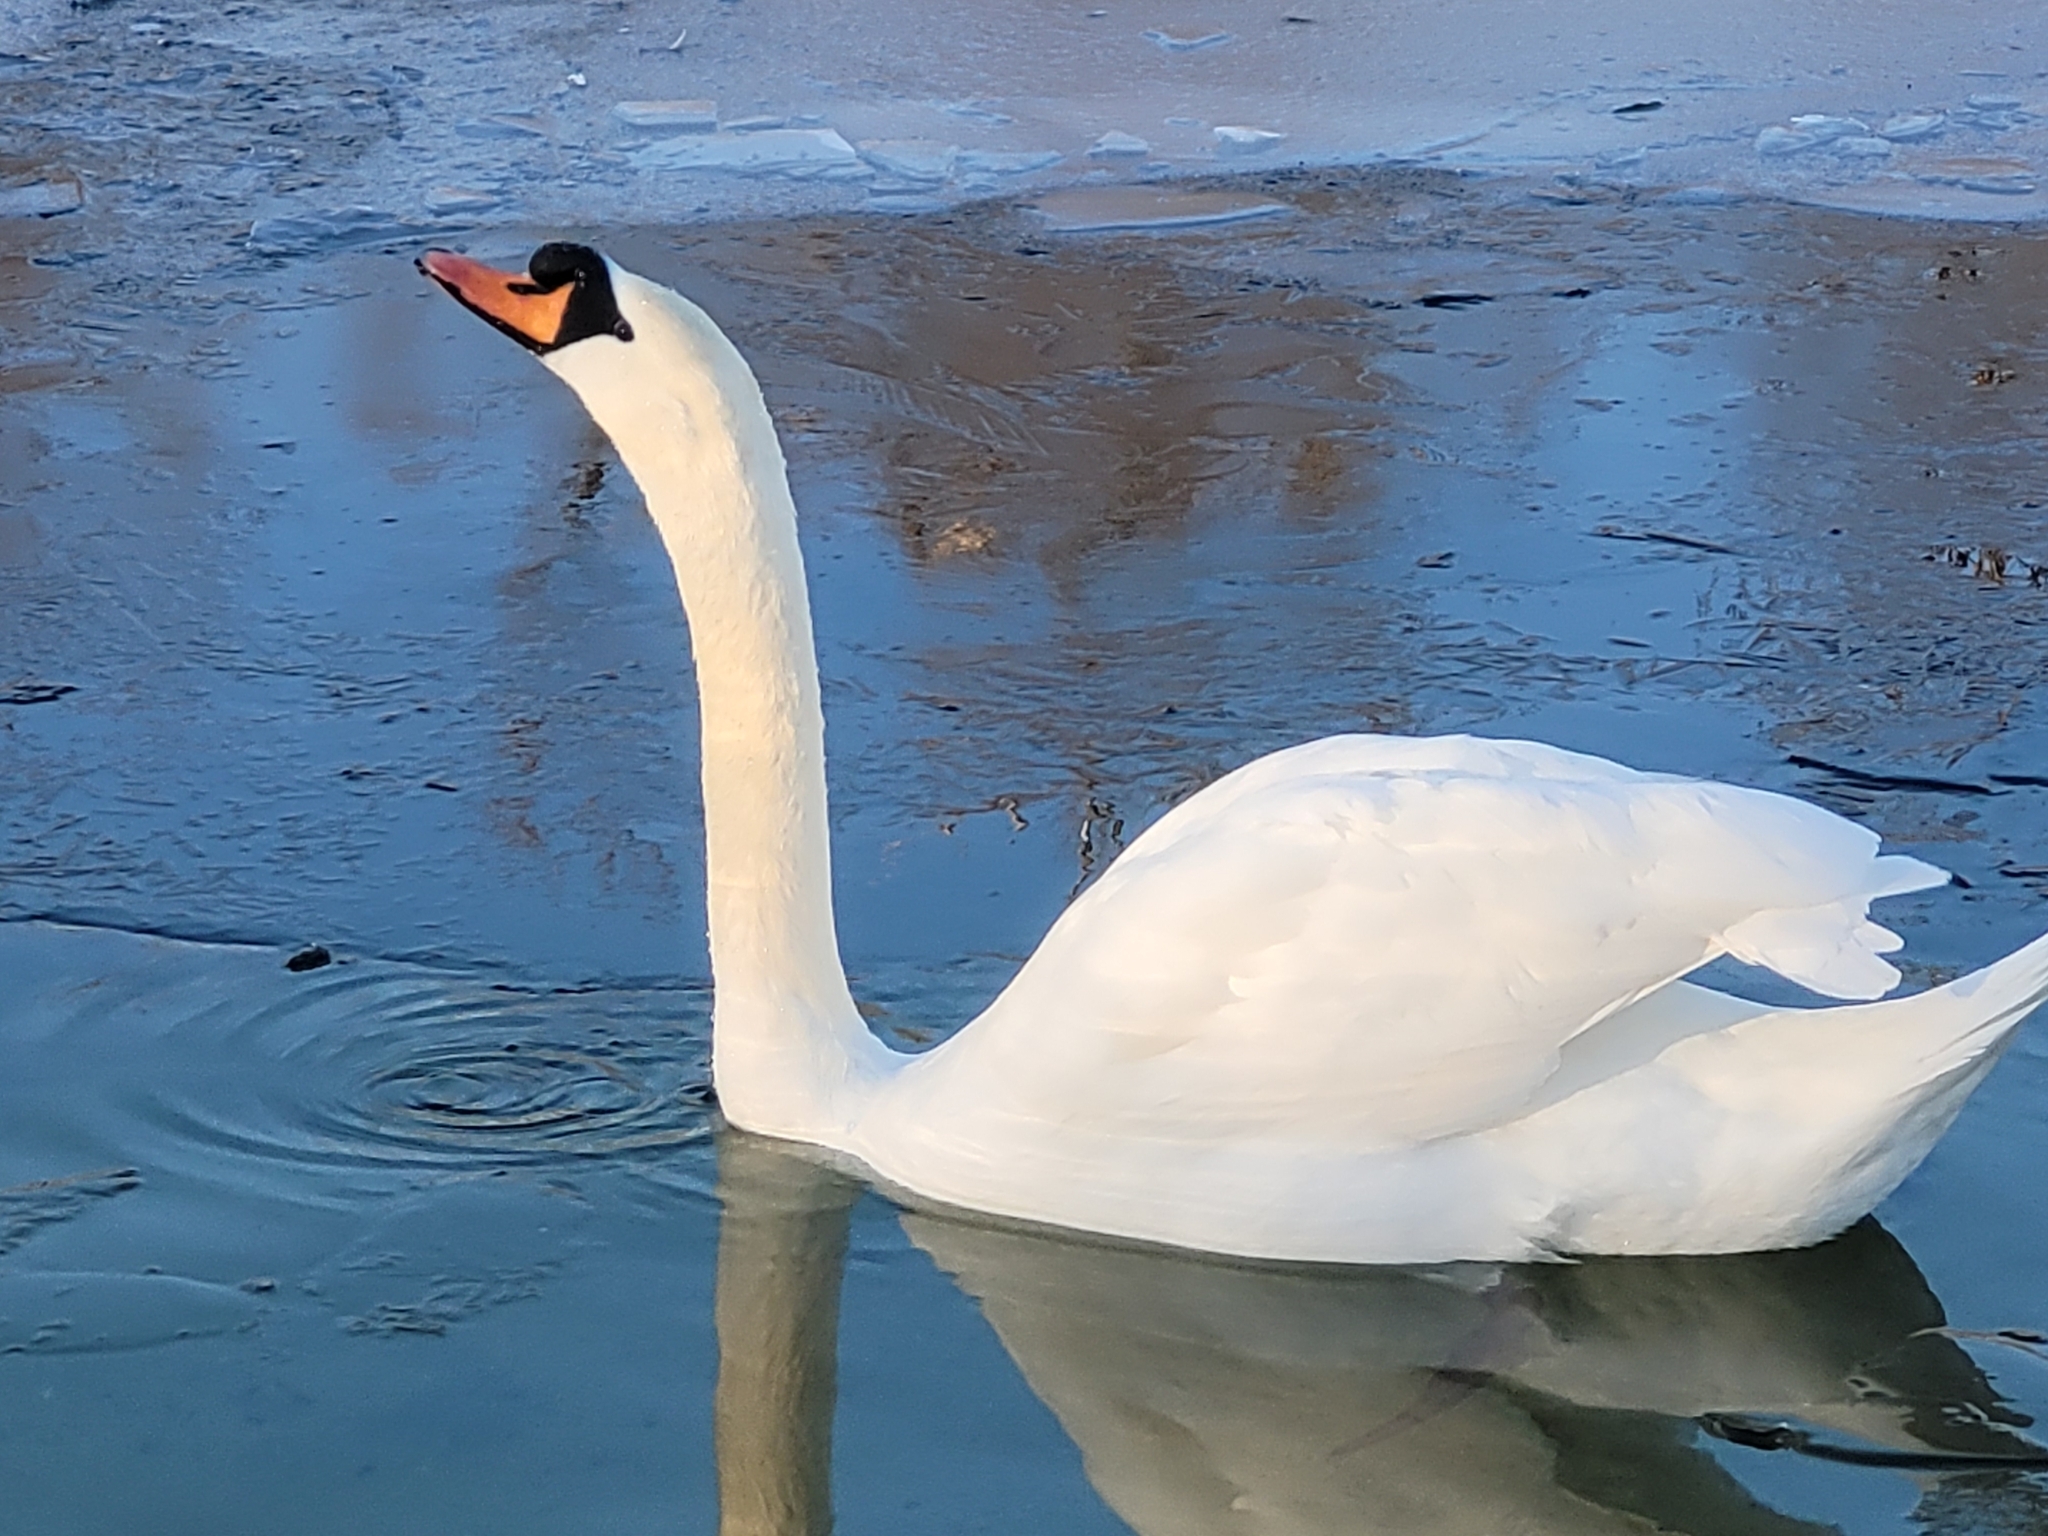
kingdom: Animalia
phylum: Chordata
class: Aves
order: Anseriformes
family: Anatidae
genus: Cygnus
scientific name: Cygnus olor
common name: Mute swan
